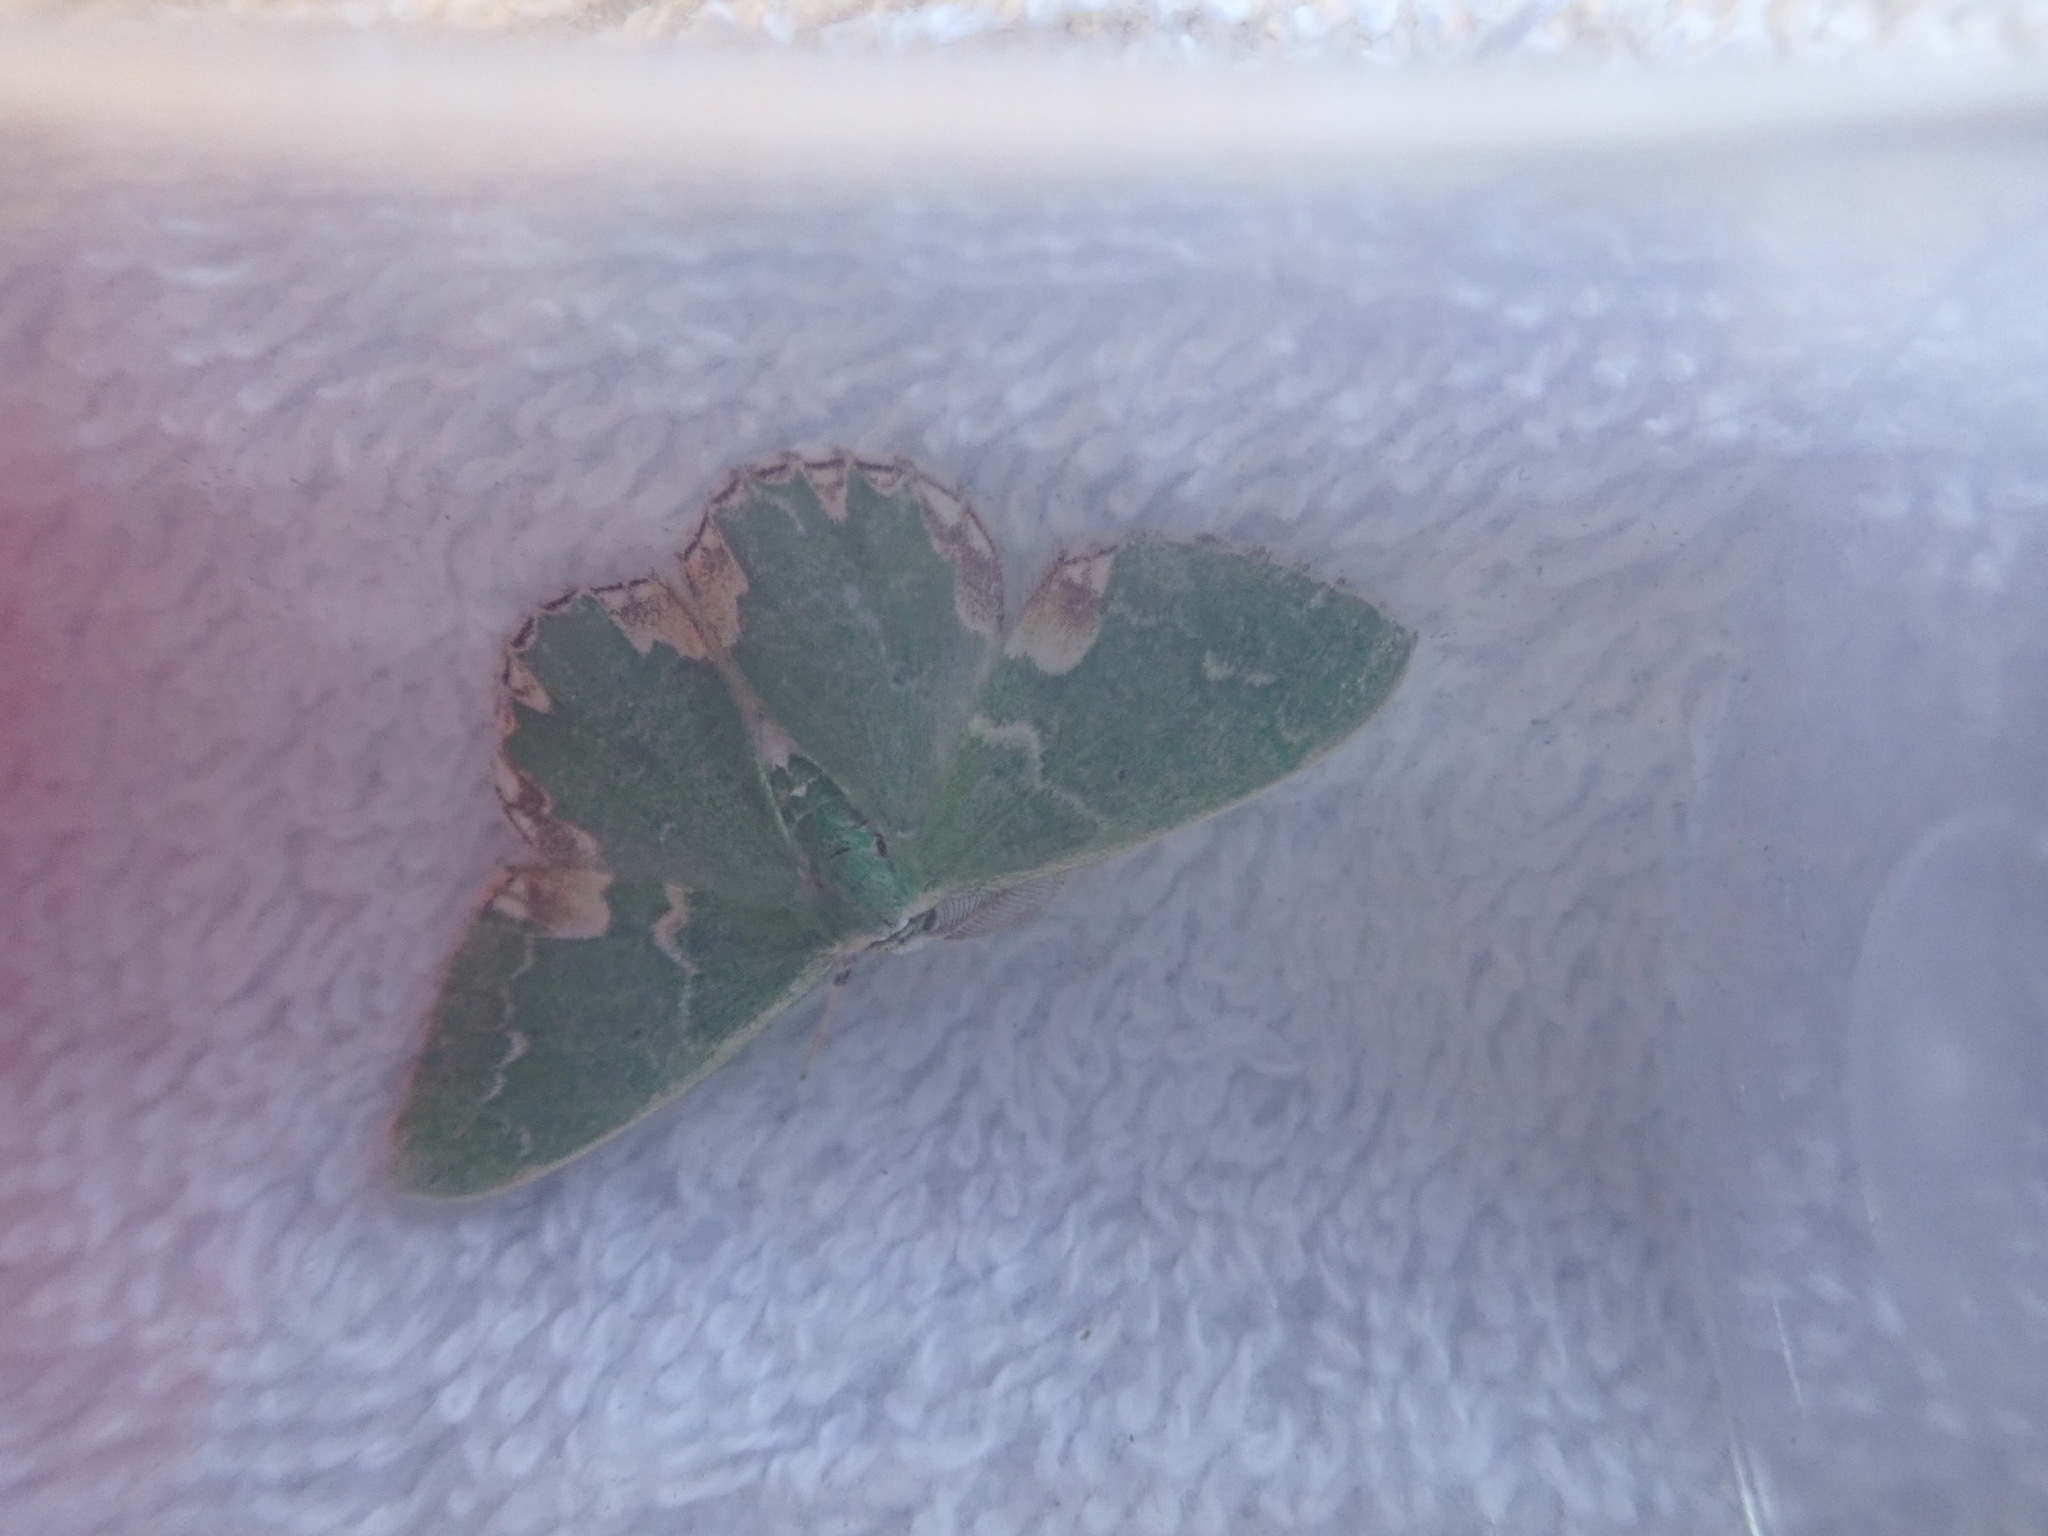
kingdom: Animalia
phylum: Arthropoda
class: Insecta
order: Lepidoptera
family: Geometridae
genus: Comibaena
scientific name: Comibaena bajularia
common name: Blotched emerald
